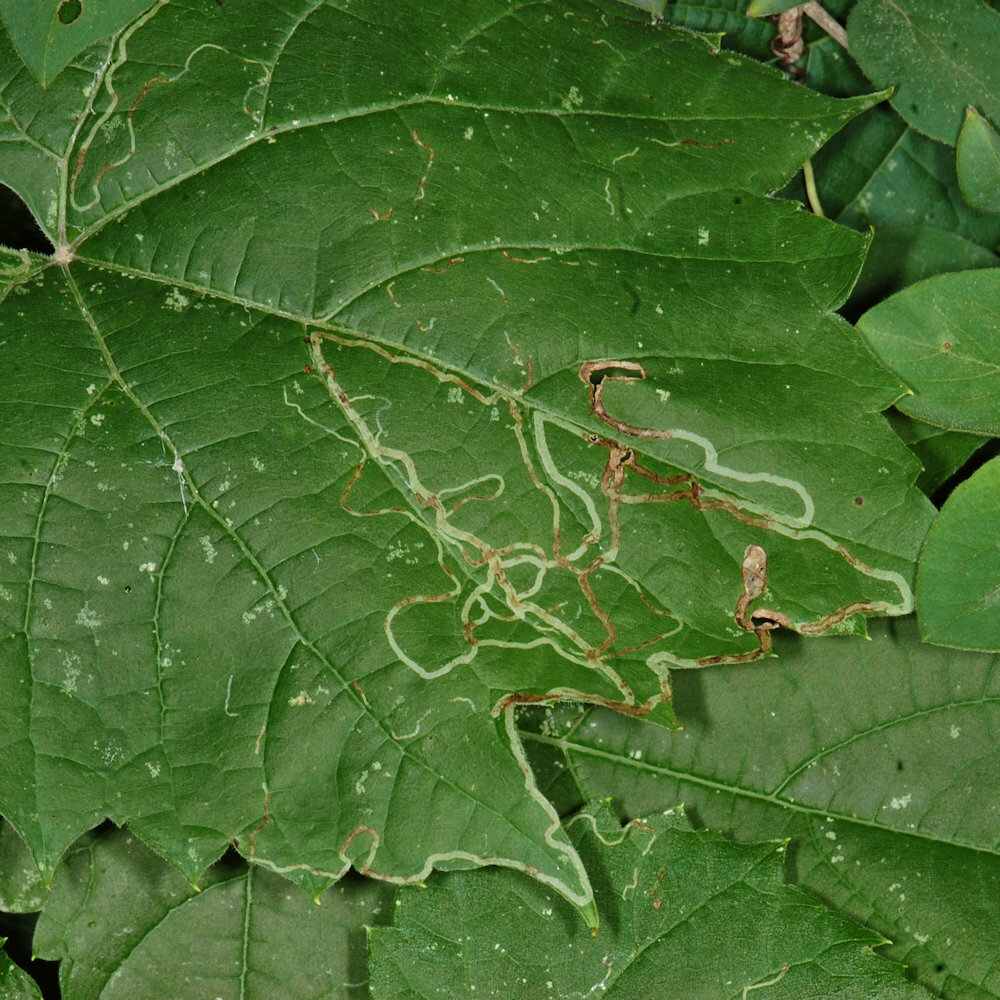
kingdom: Animalia
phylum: Arthropoda
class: Insecta
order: Lepidoptera
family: Gracillariidae
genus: Phyllocnistis
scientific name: Phyllocnistis vitifoliella
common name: Grape leaf-miner moth
